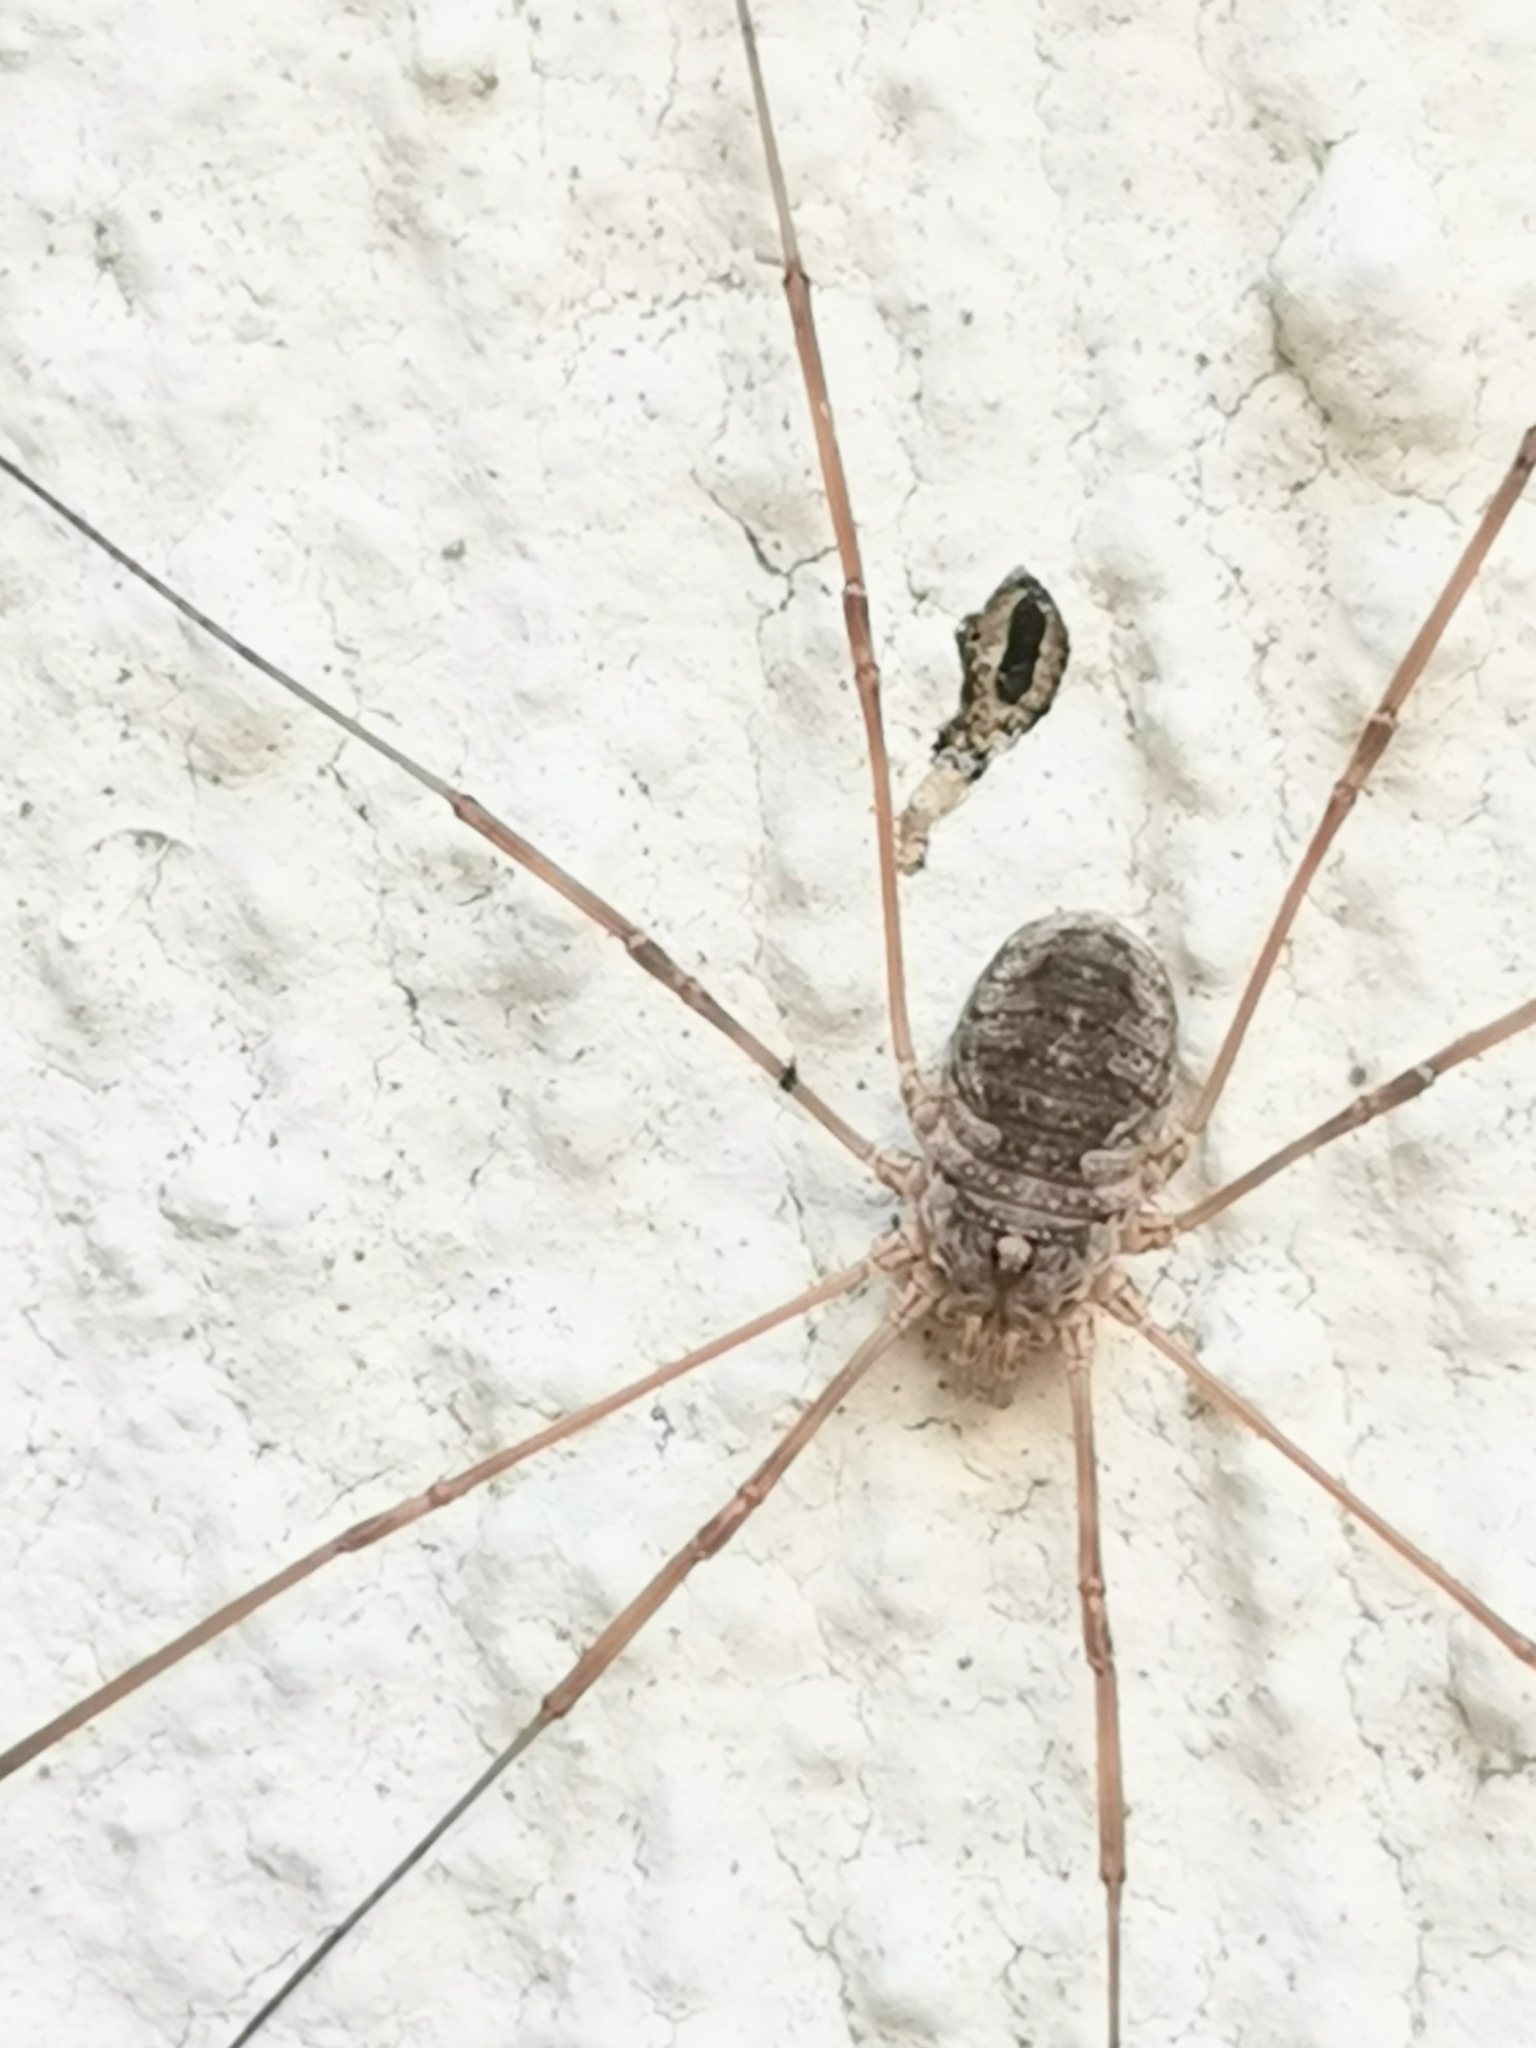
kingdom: Animalia
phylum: Arthropoda
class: Arachnida
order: Opiliones
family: Phalangiidae
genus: Phalangium
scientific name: Phalangium opilio
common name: Daddy longleg
